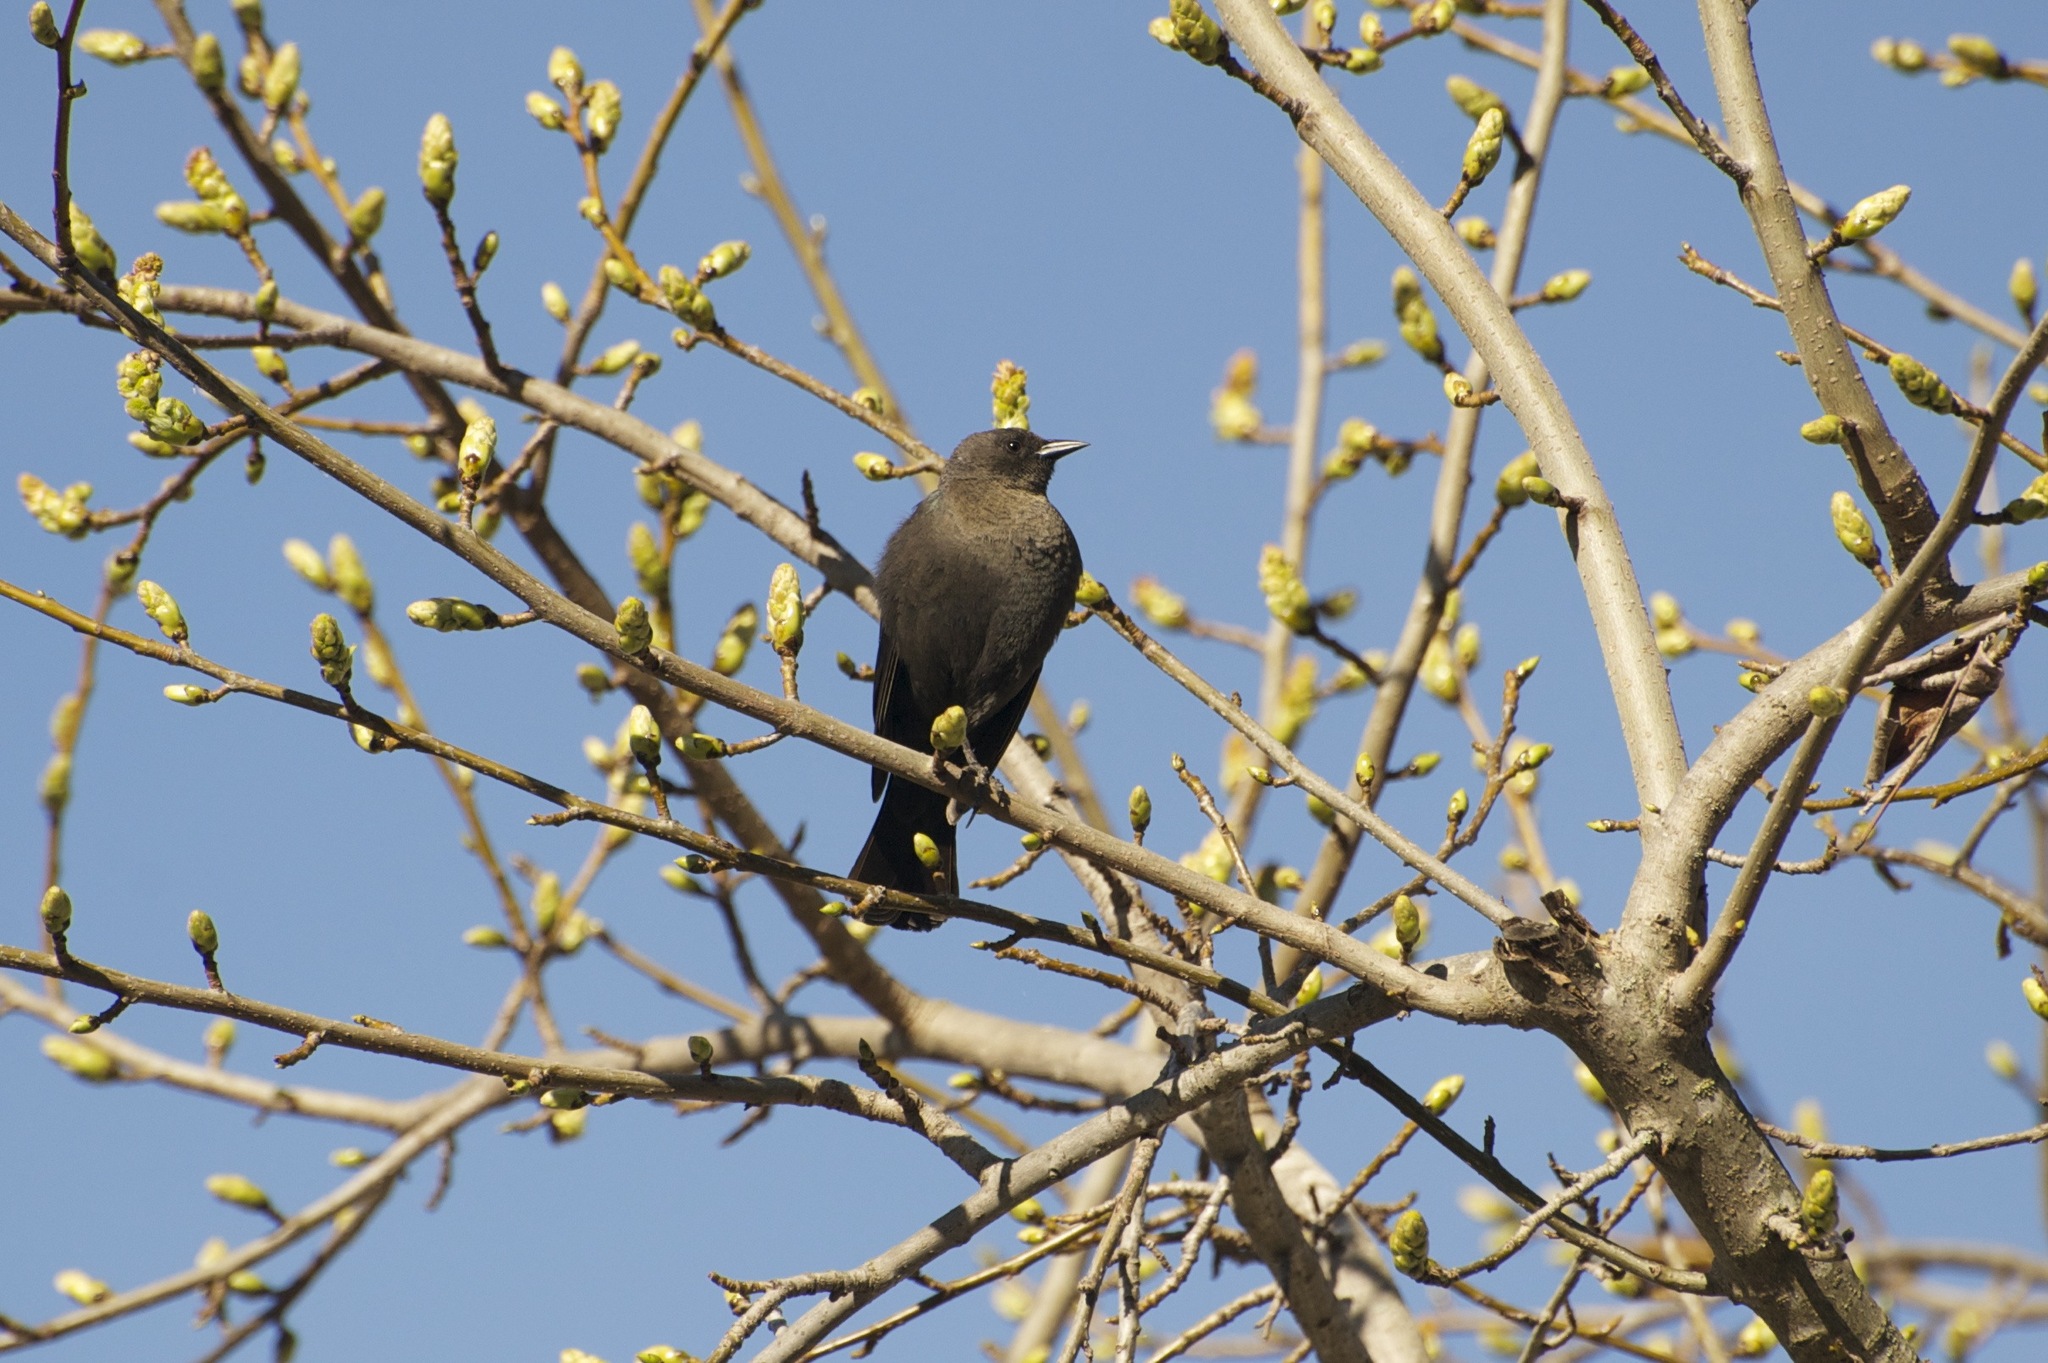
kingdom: Animalia
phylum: Chordata
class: Aves
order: Passeriformes
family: Icteridae
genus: Euphagus
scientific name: Euphagus cyanocephalus
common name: Brewer's blackbird
